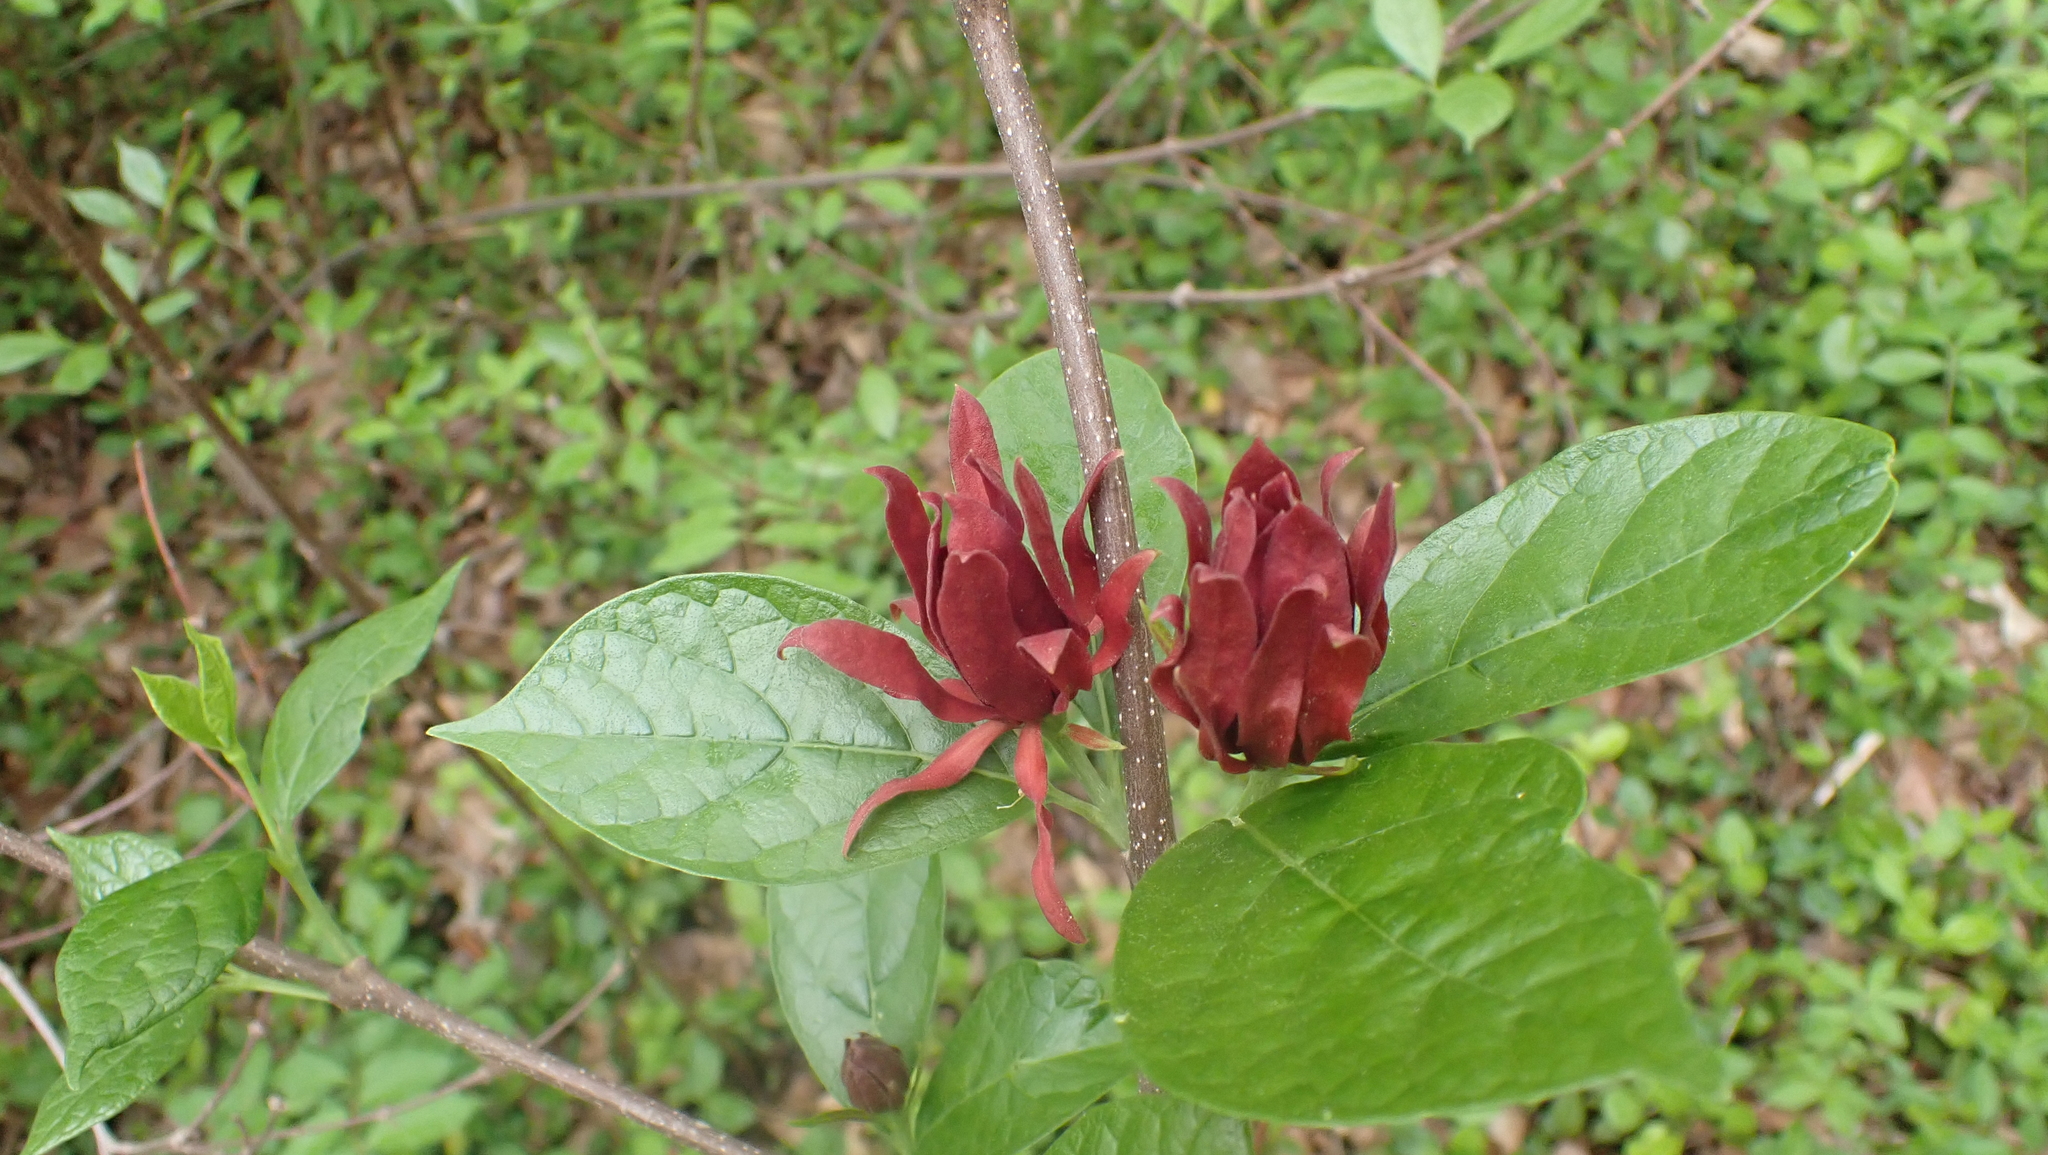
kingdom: Plantae
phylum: Tracheophyta
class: Magnoliopsida
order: Laurales
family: Calycanthaceae
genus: Calycanthus
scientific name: Calycanthus floridus
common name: Carolina-allspice
